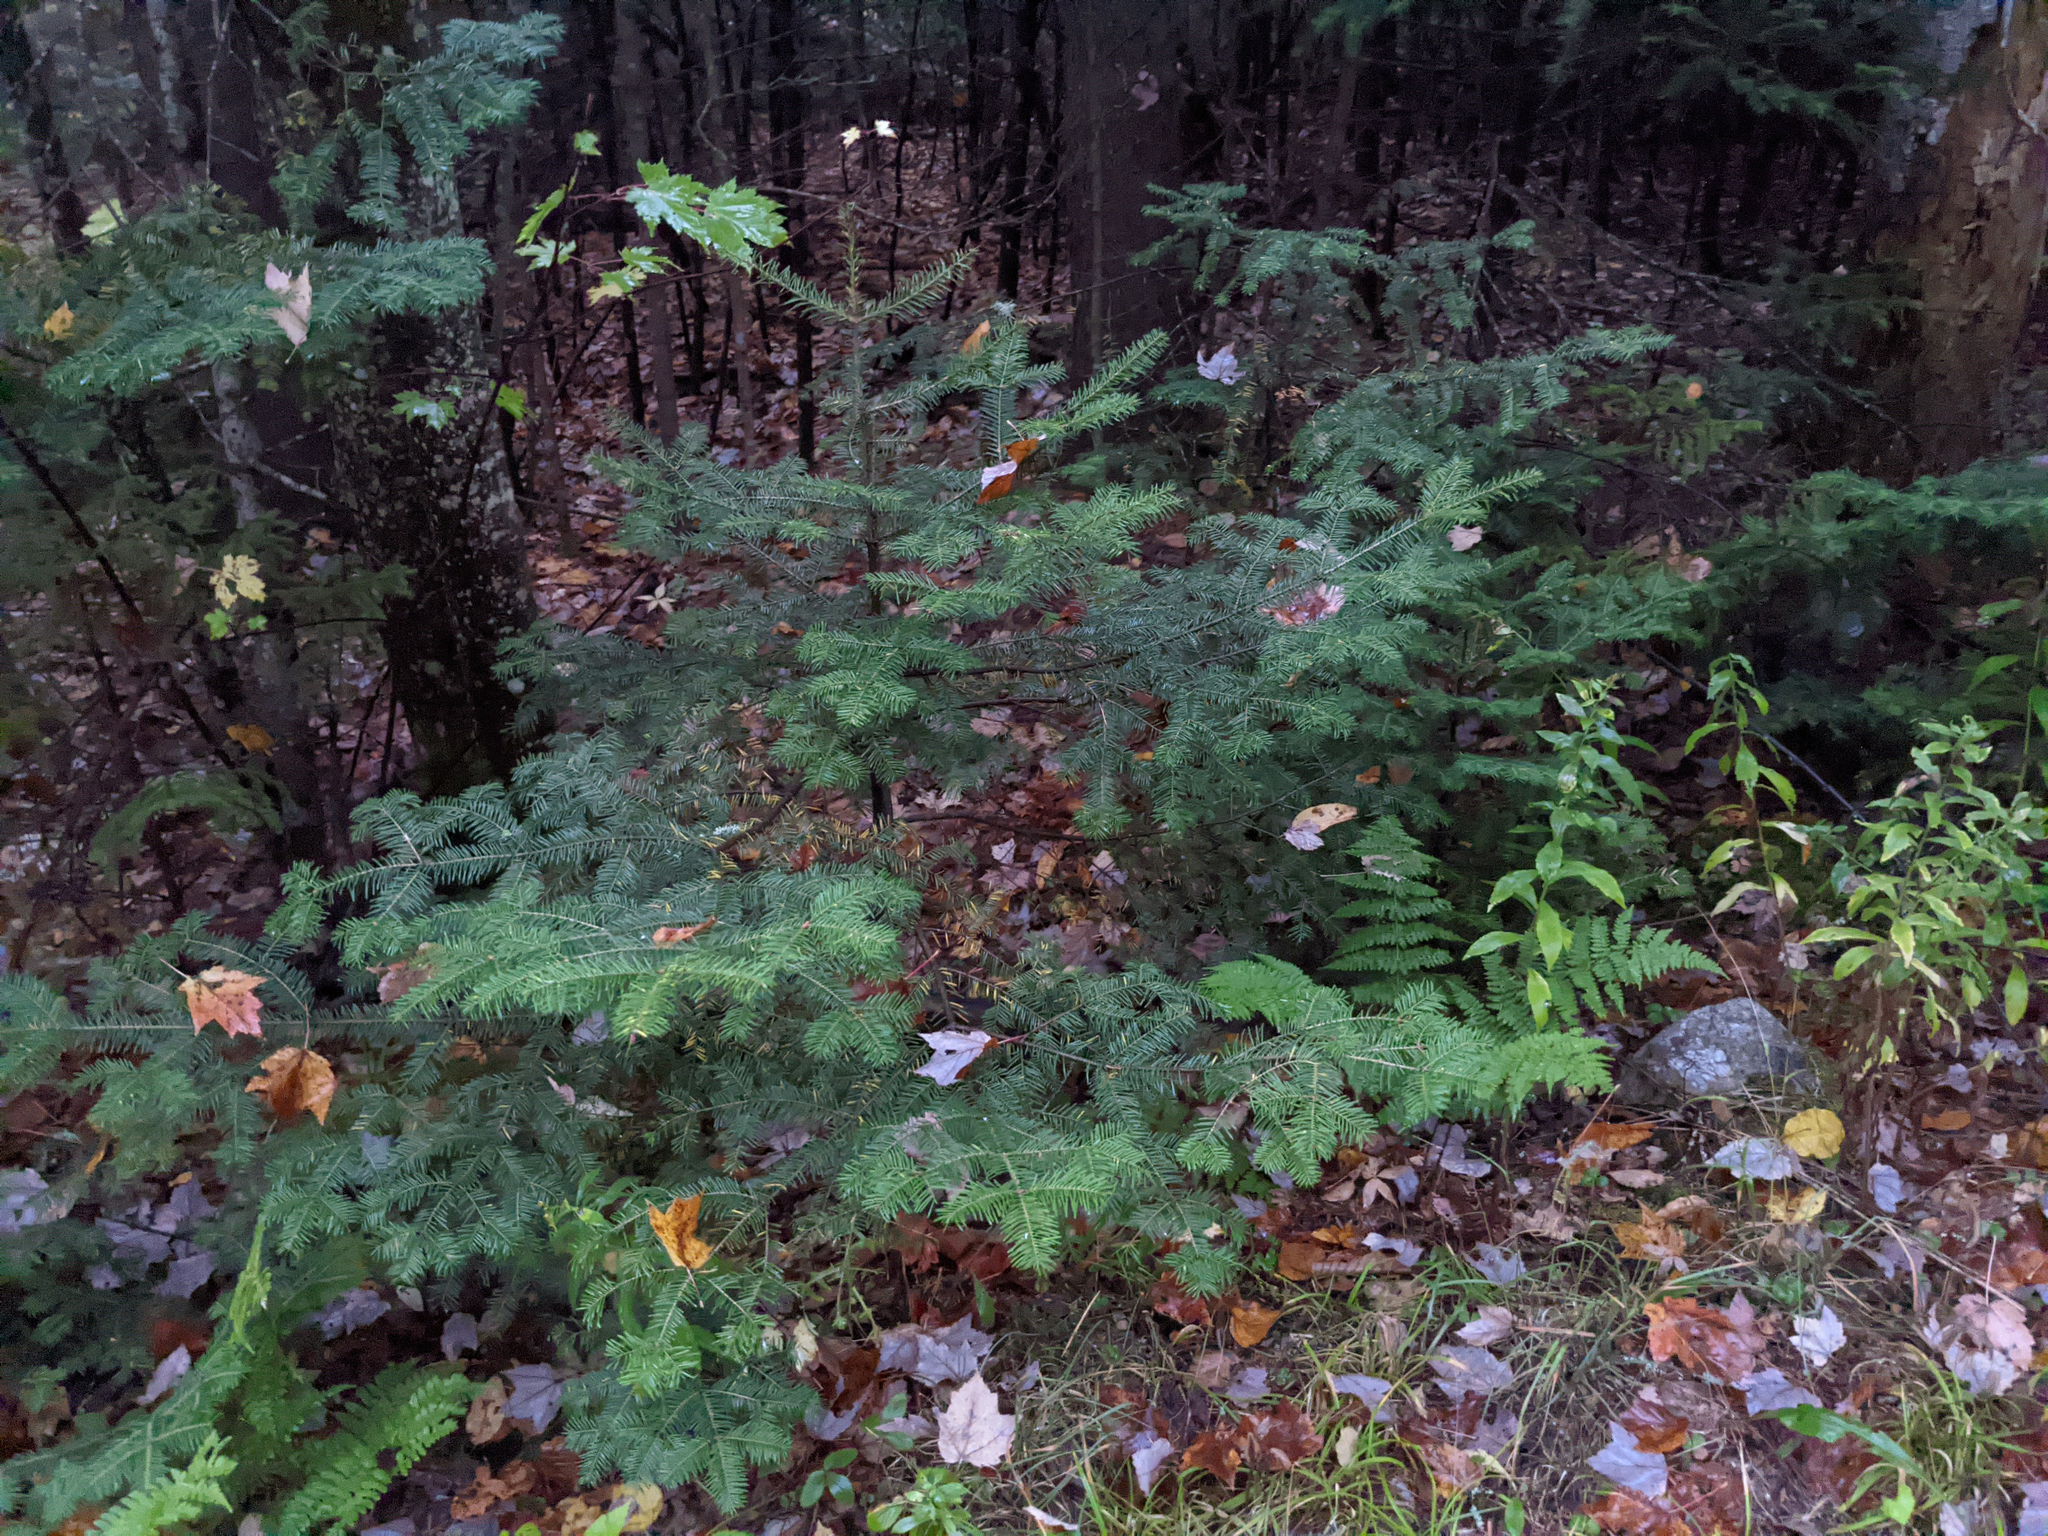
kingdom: Plantae
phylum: Tracheophyta
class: Pinopsida
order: Pinales
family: Pinaceae
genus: Abies
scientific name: Abies balsamea
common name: Balsam fir
